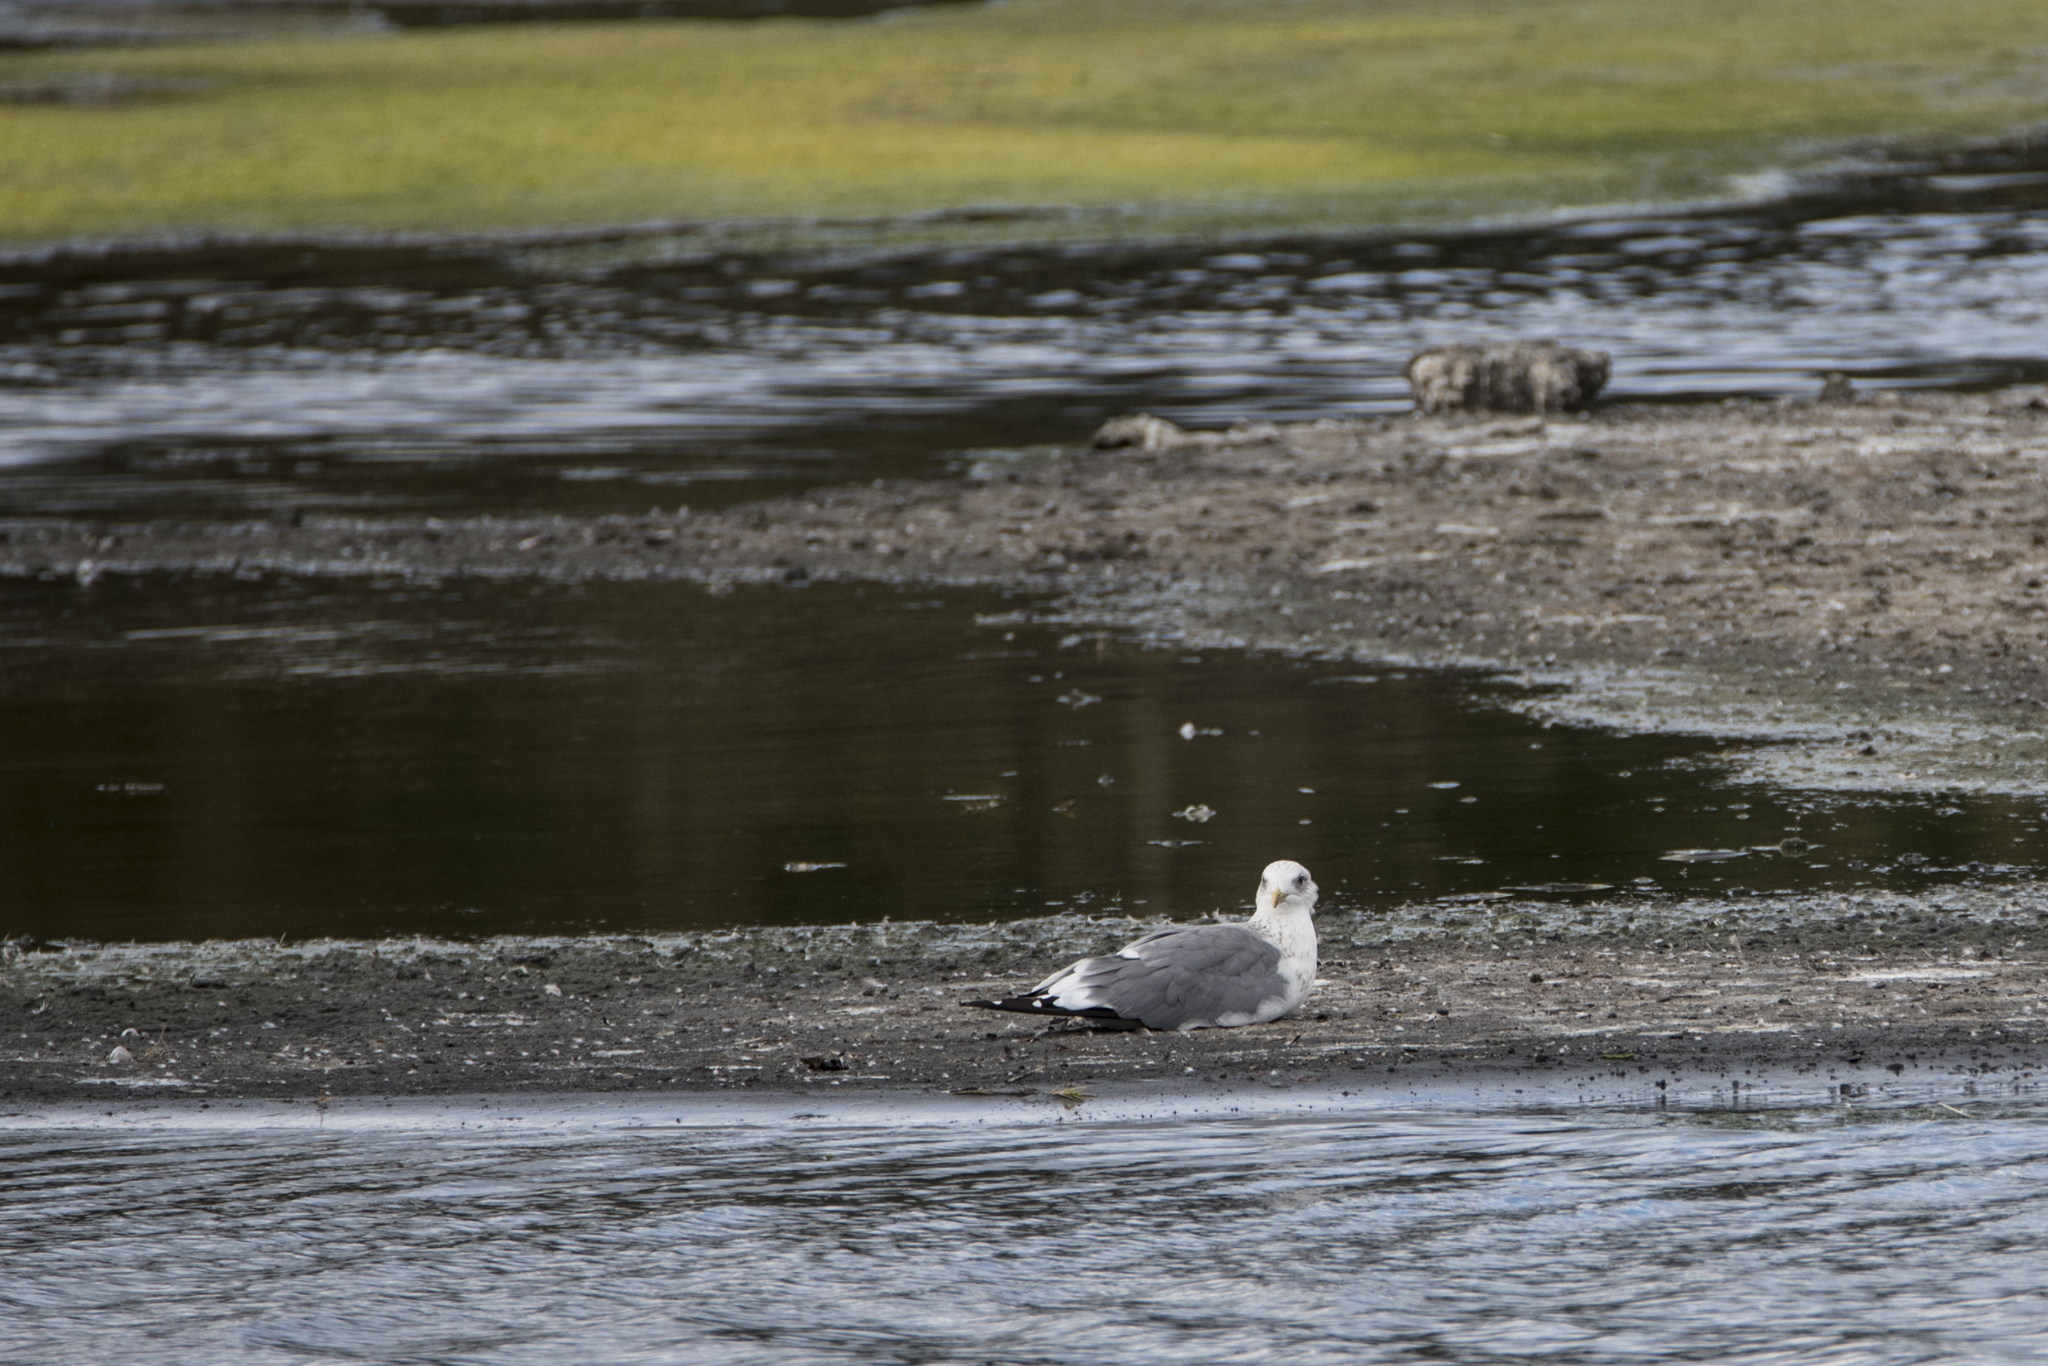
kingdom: Animalia
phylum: Chordata
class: Aves
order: Charadriiformes
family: Laridae
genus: Larus
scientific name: Larus argentatus
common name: Herring gull
